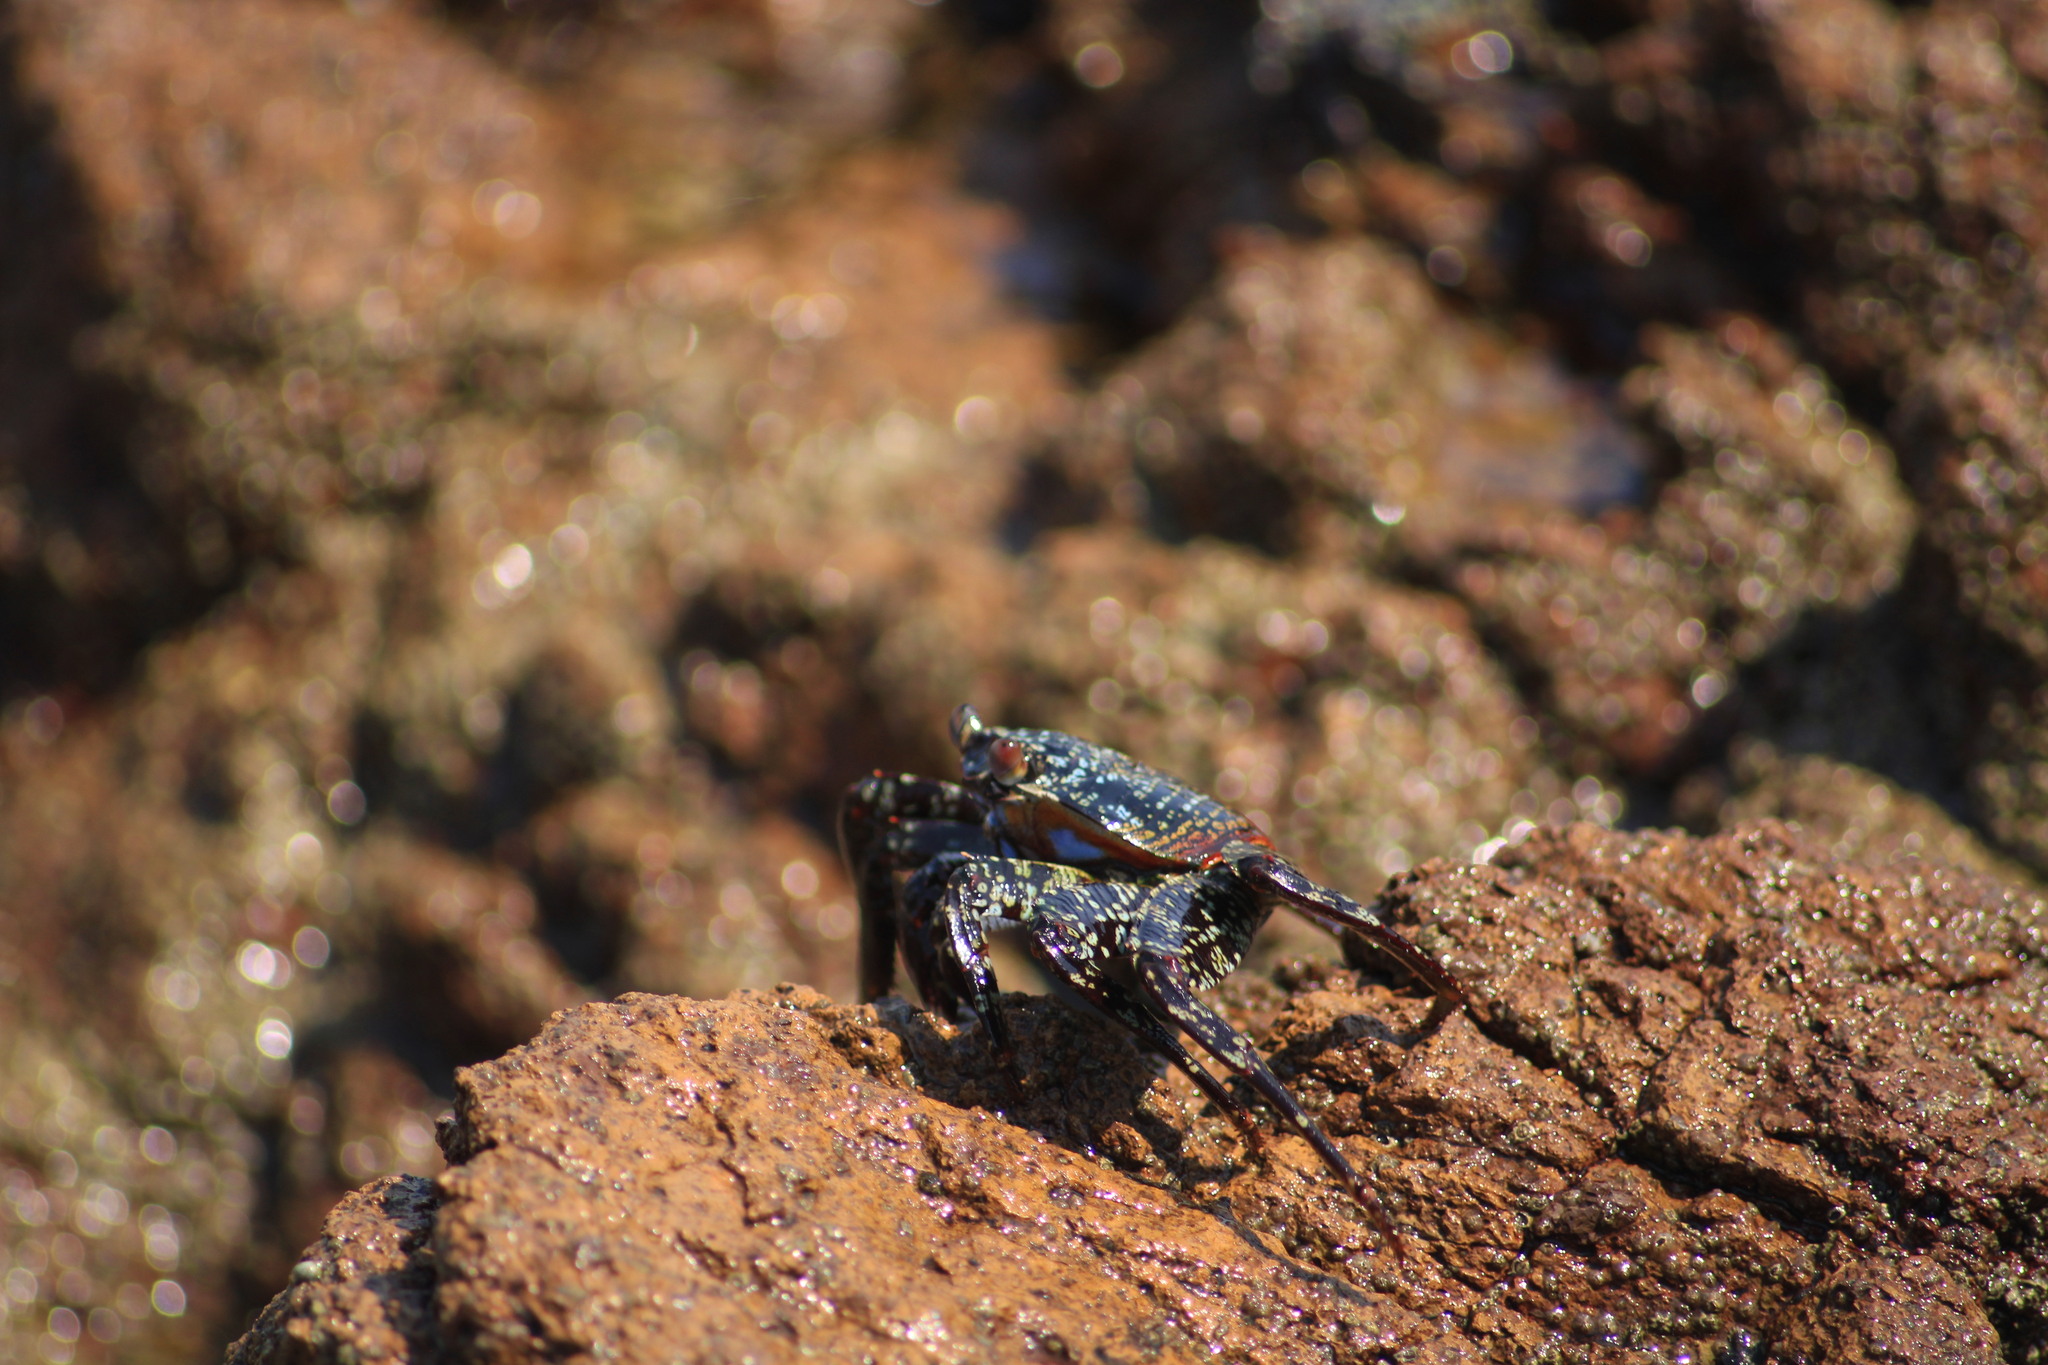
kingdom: Animalia
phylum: Arthropoda
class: Malacostraca
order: Decapoda
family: Grapsidae
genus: Grapsus
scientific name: Grapsus grapsus
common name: Sally lightfoot
